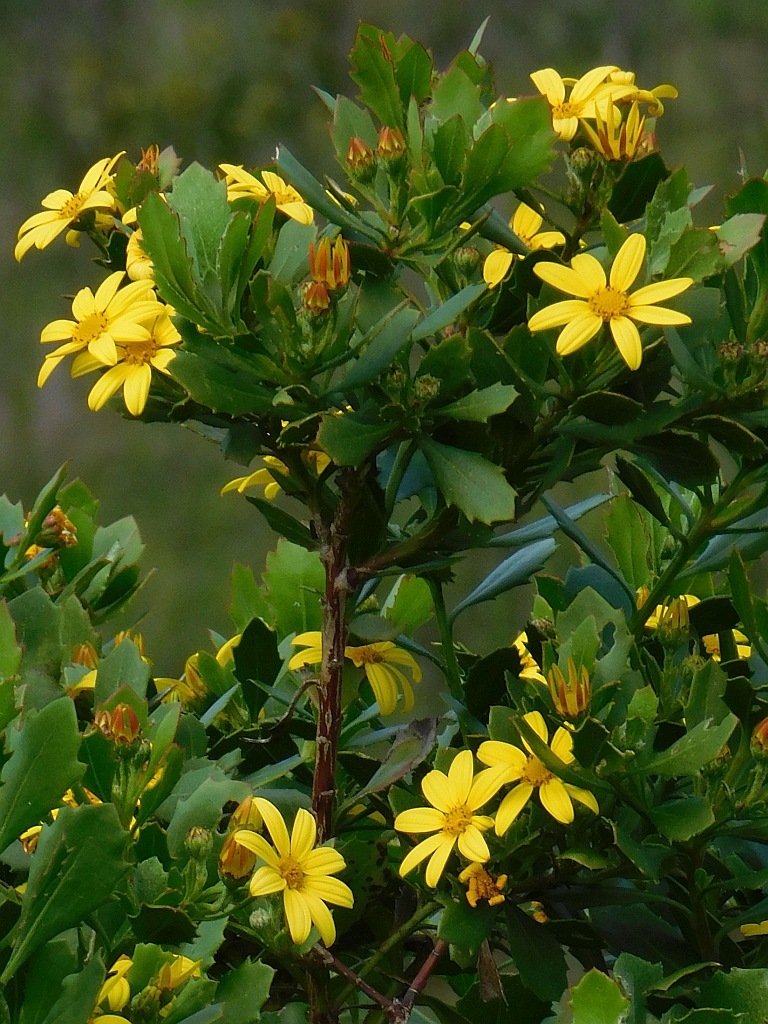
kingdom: Plantae
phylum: Tracheophyta
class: Magnoliopsida
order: Asterales
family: Asteraceae
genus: Osteospermum
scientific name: Osteospermum moniliferum
